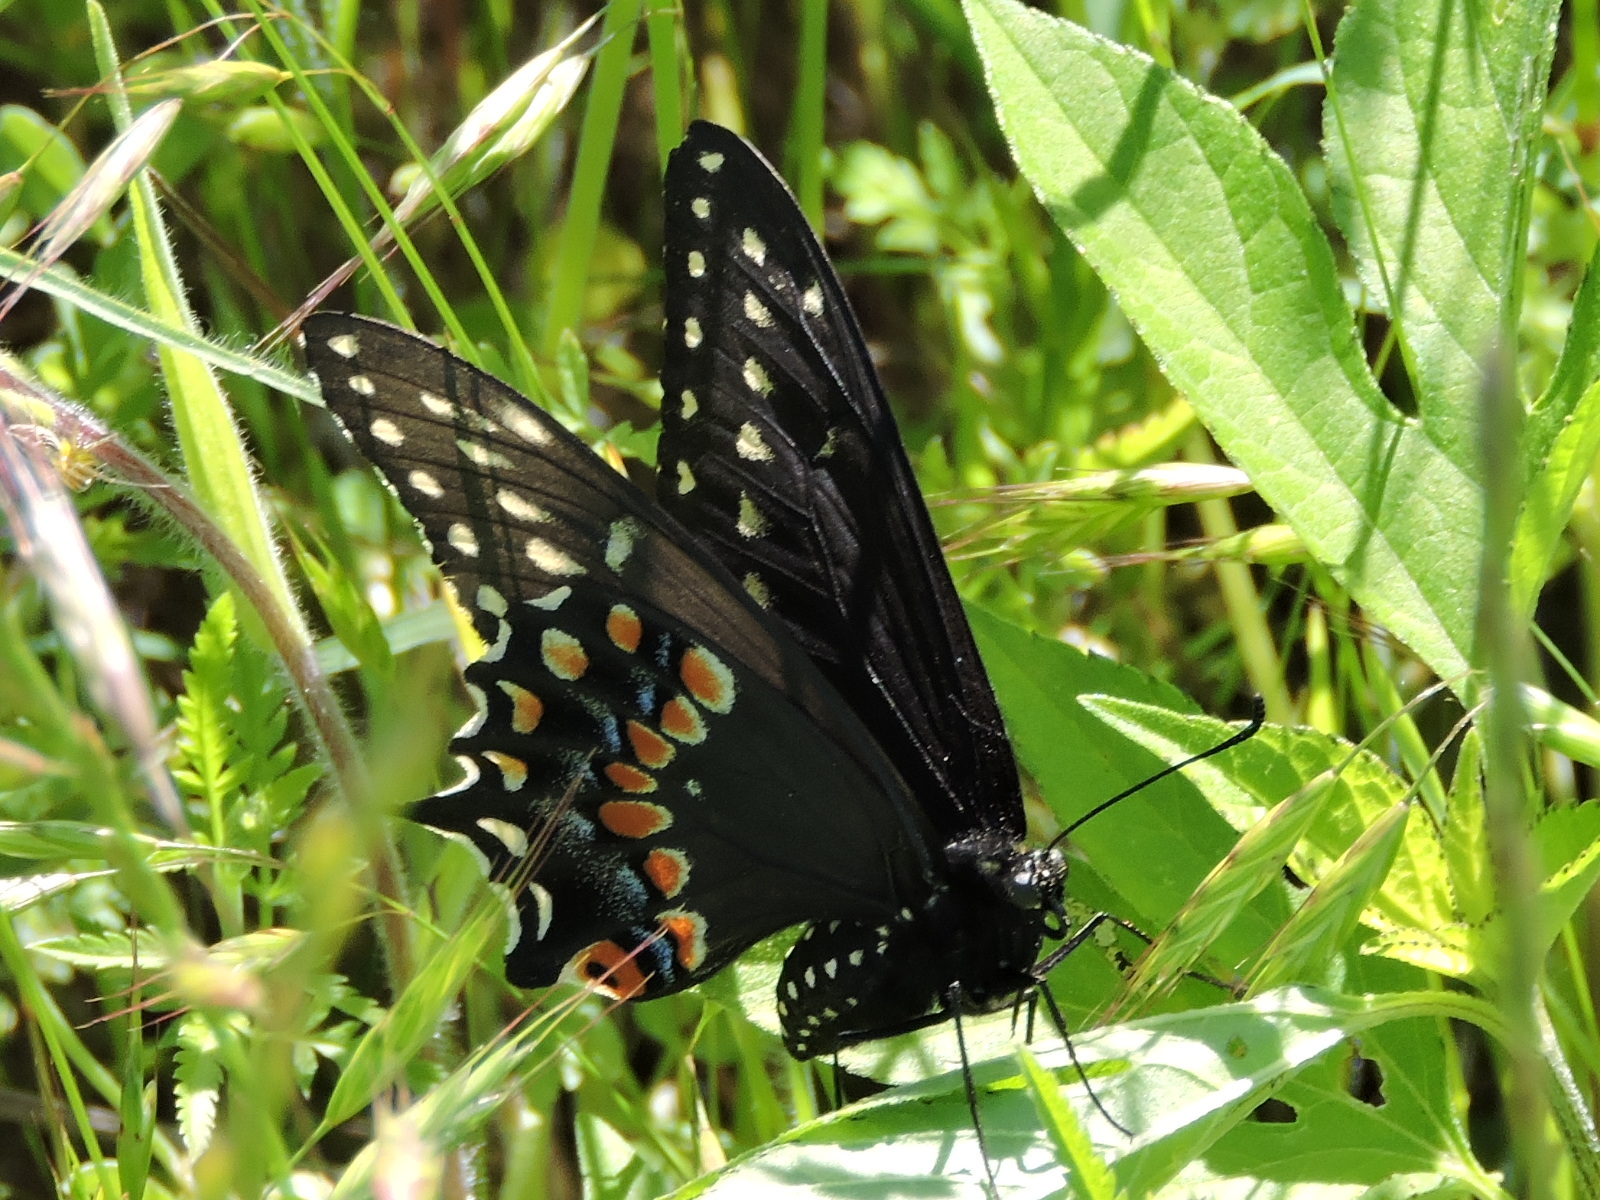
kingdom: Animalia
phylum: Arthropoda
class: Insecta
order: Lepidoptera
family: Papilionidae
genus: Papilio
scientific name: Papilio polyxenes
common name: Black swallowtail
